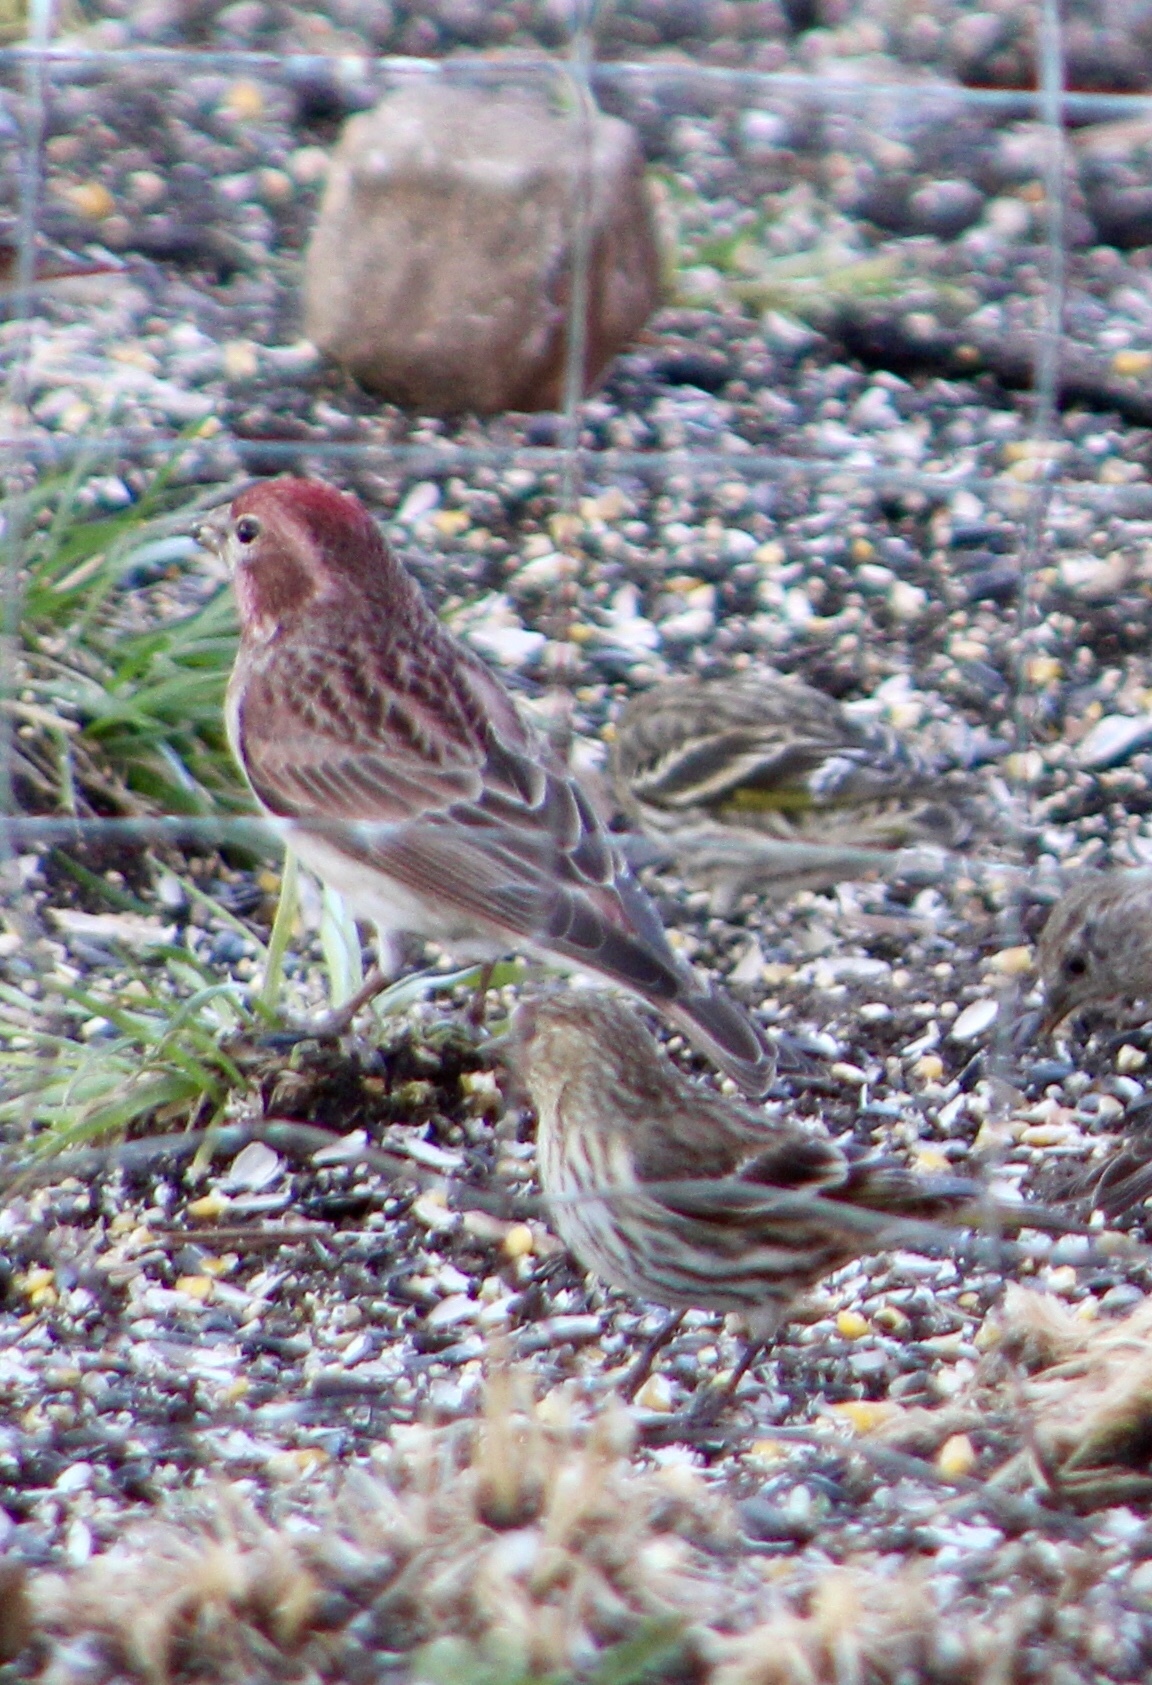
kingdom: Animalia
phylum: Chordata
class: Aves
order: Passeriformes
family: Fringillidae
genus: Haemorhous
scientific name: Haemorhous cassinii
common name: Cassin's finch
